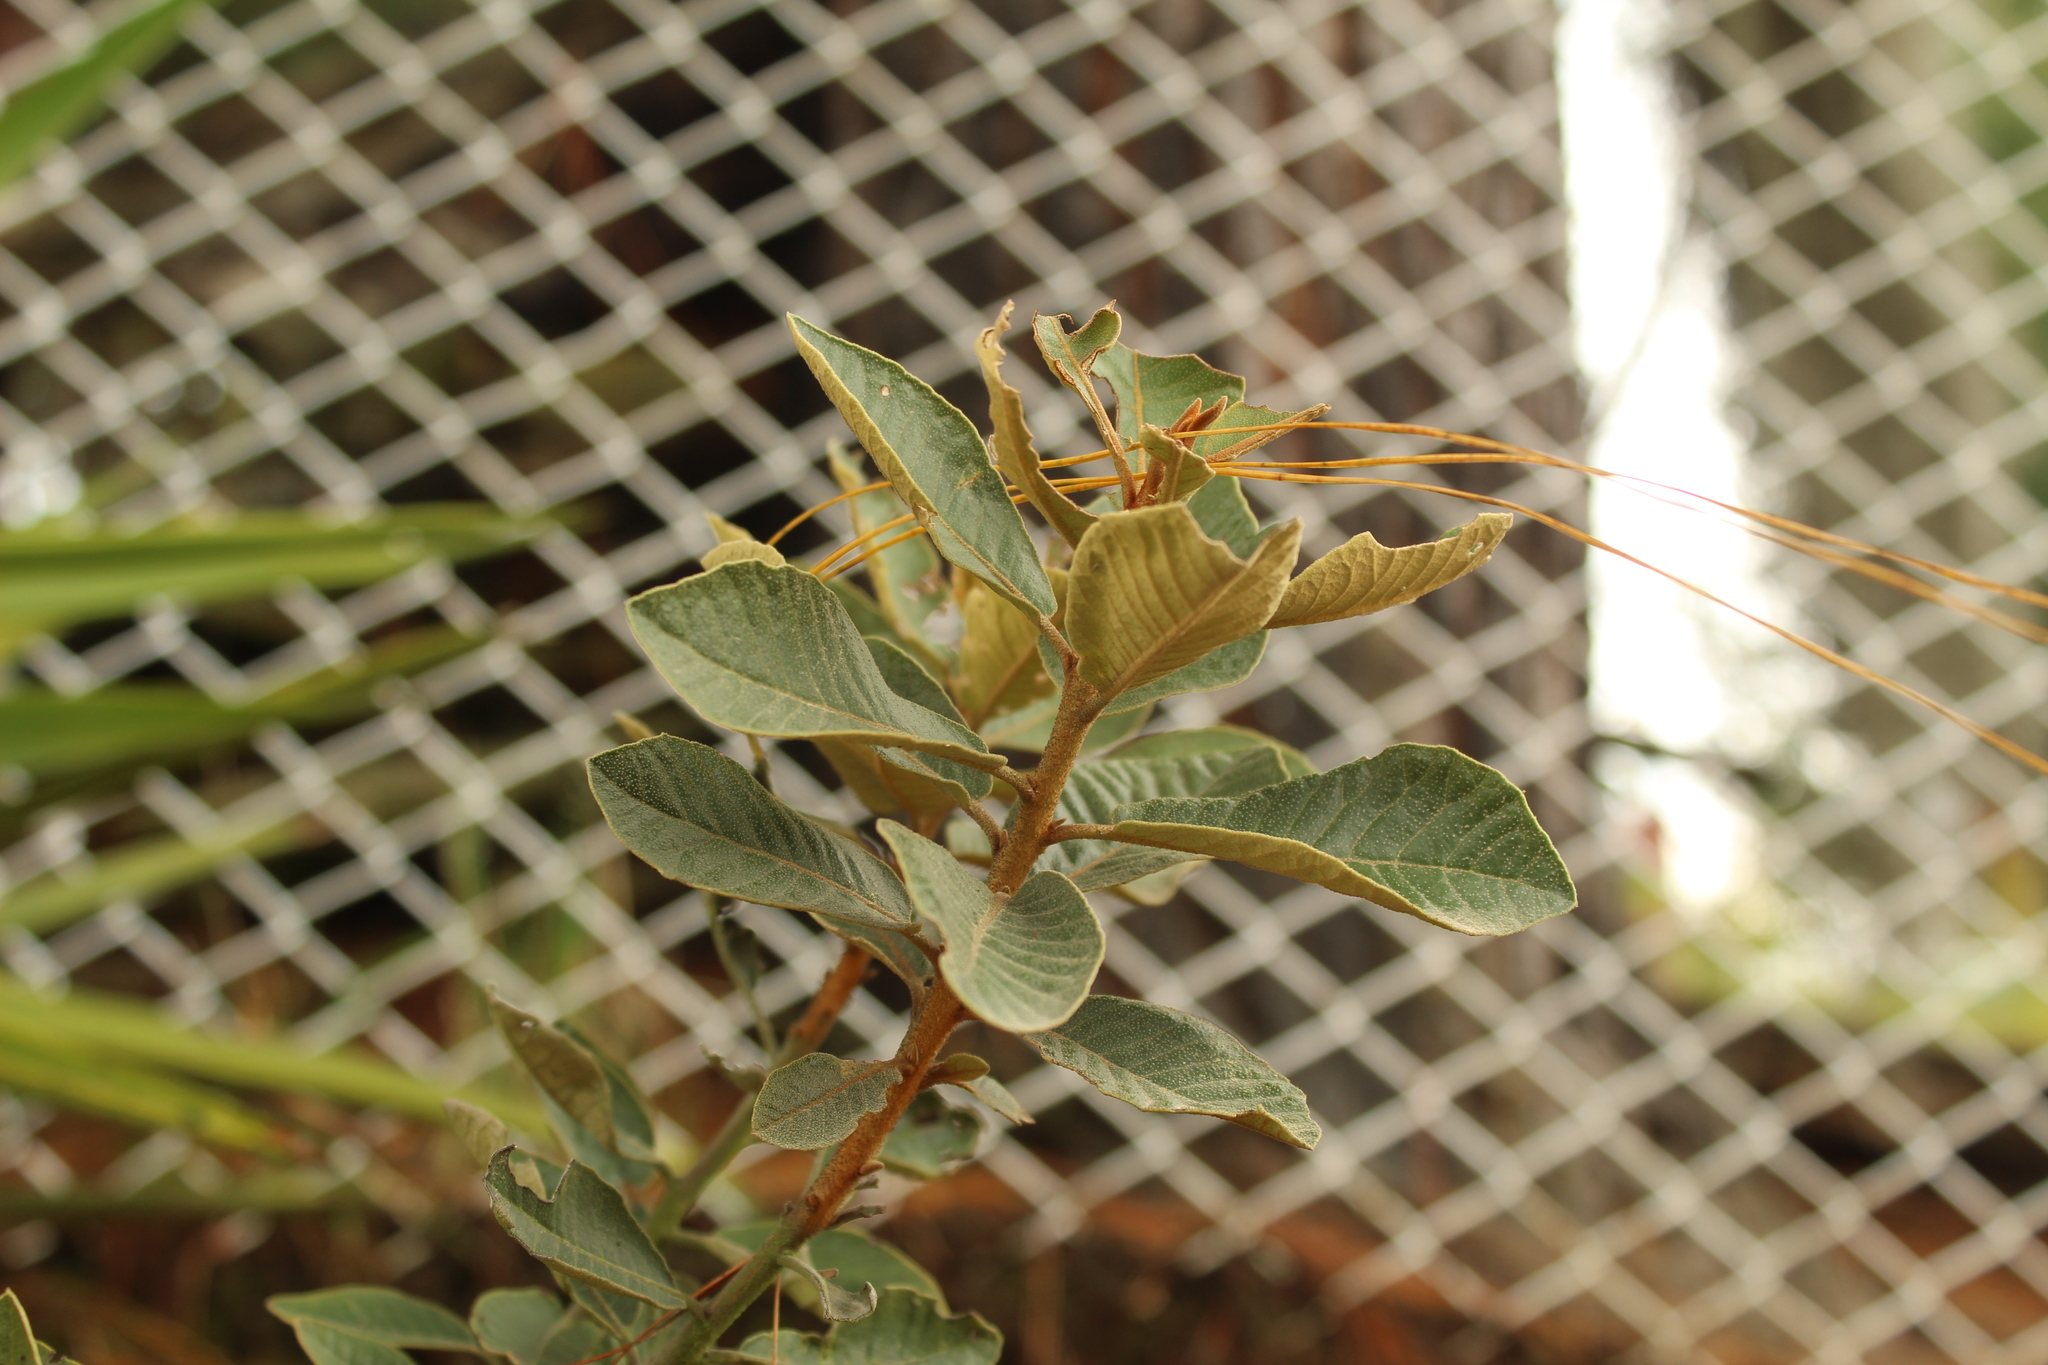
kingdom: Plantae
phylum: Tracheophyta
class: Magnoliopsida
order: Ericales
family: Clethraceae
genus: Clethra
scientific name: Clethra fimbriata
